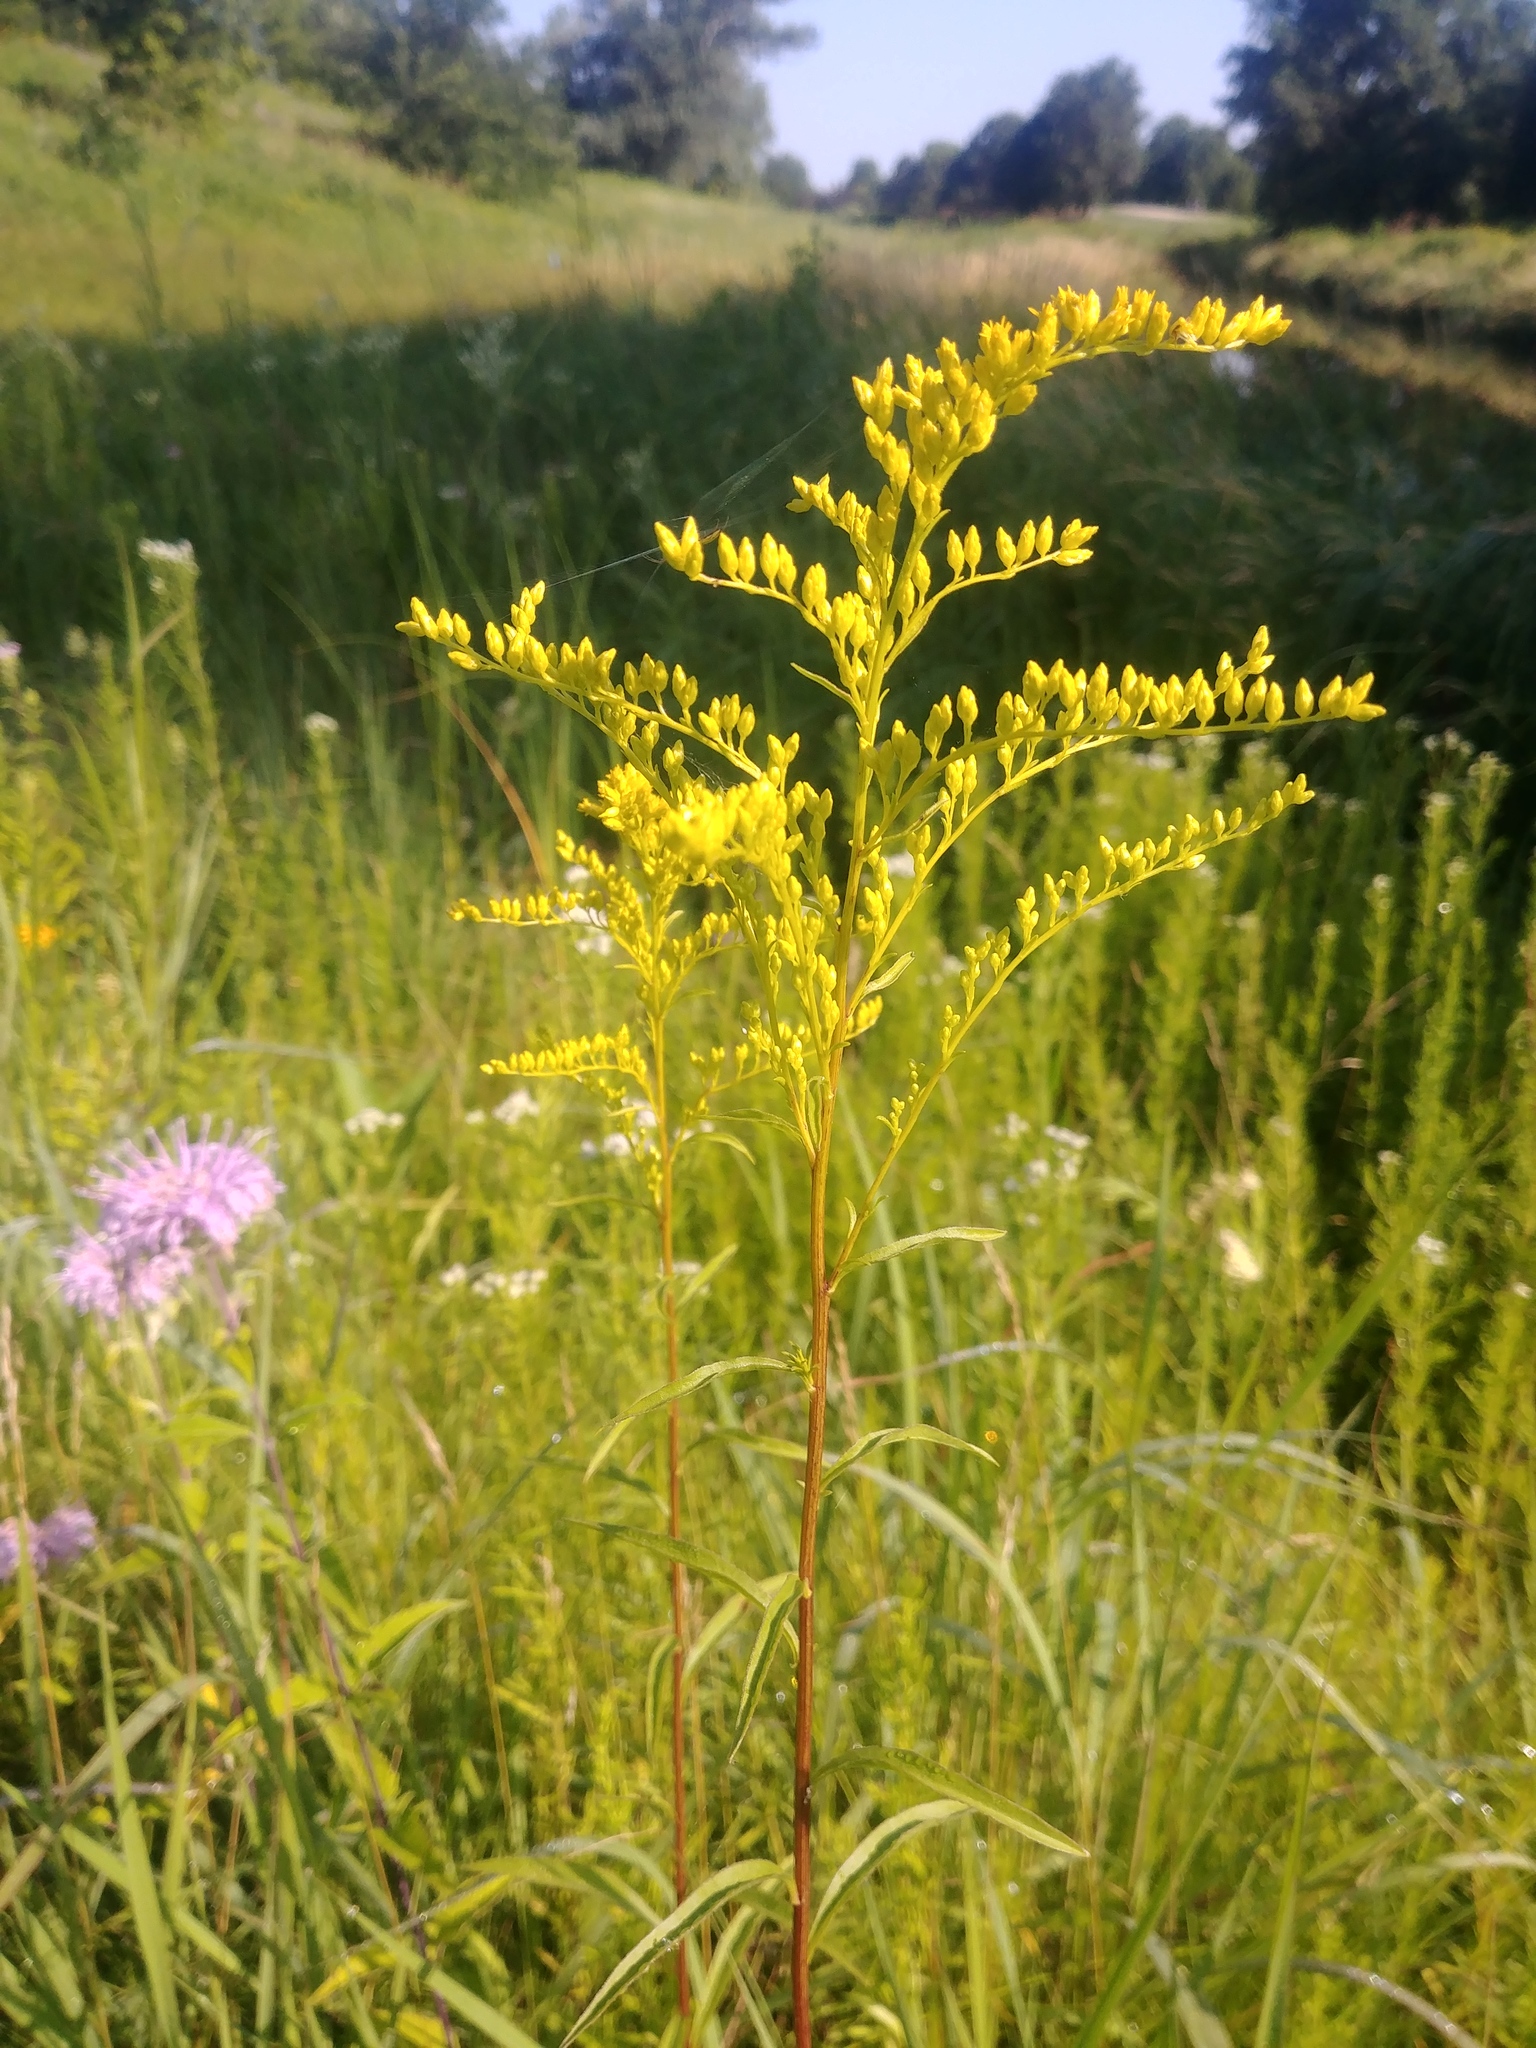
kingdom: Plantae
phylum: Tracheophyta
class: Magnoliopsida
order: Asterales
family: Asteraceae
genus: Solidago
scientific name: Solidago juncea
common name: Early goldenrod
